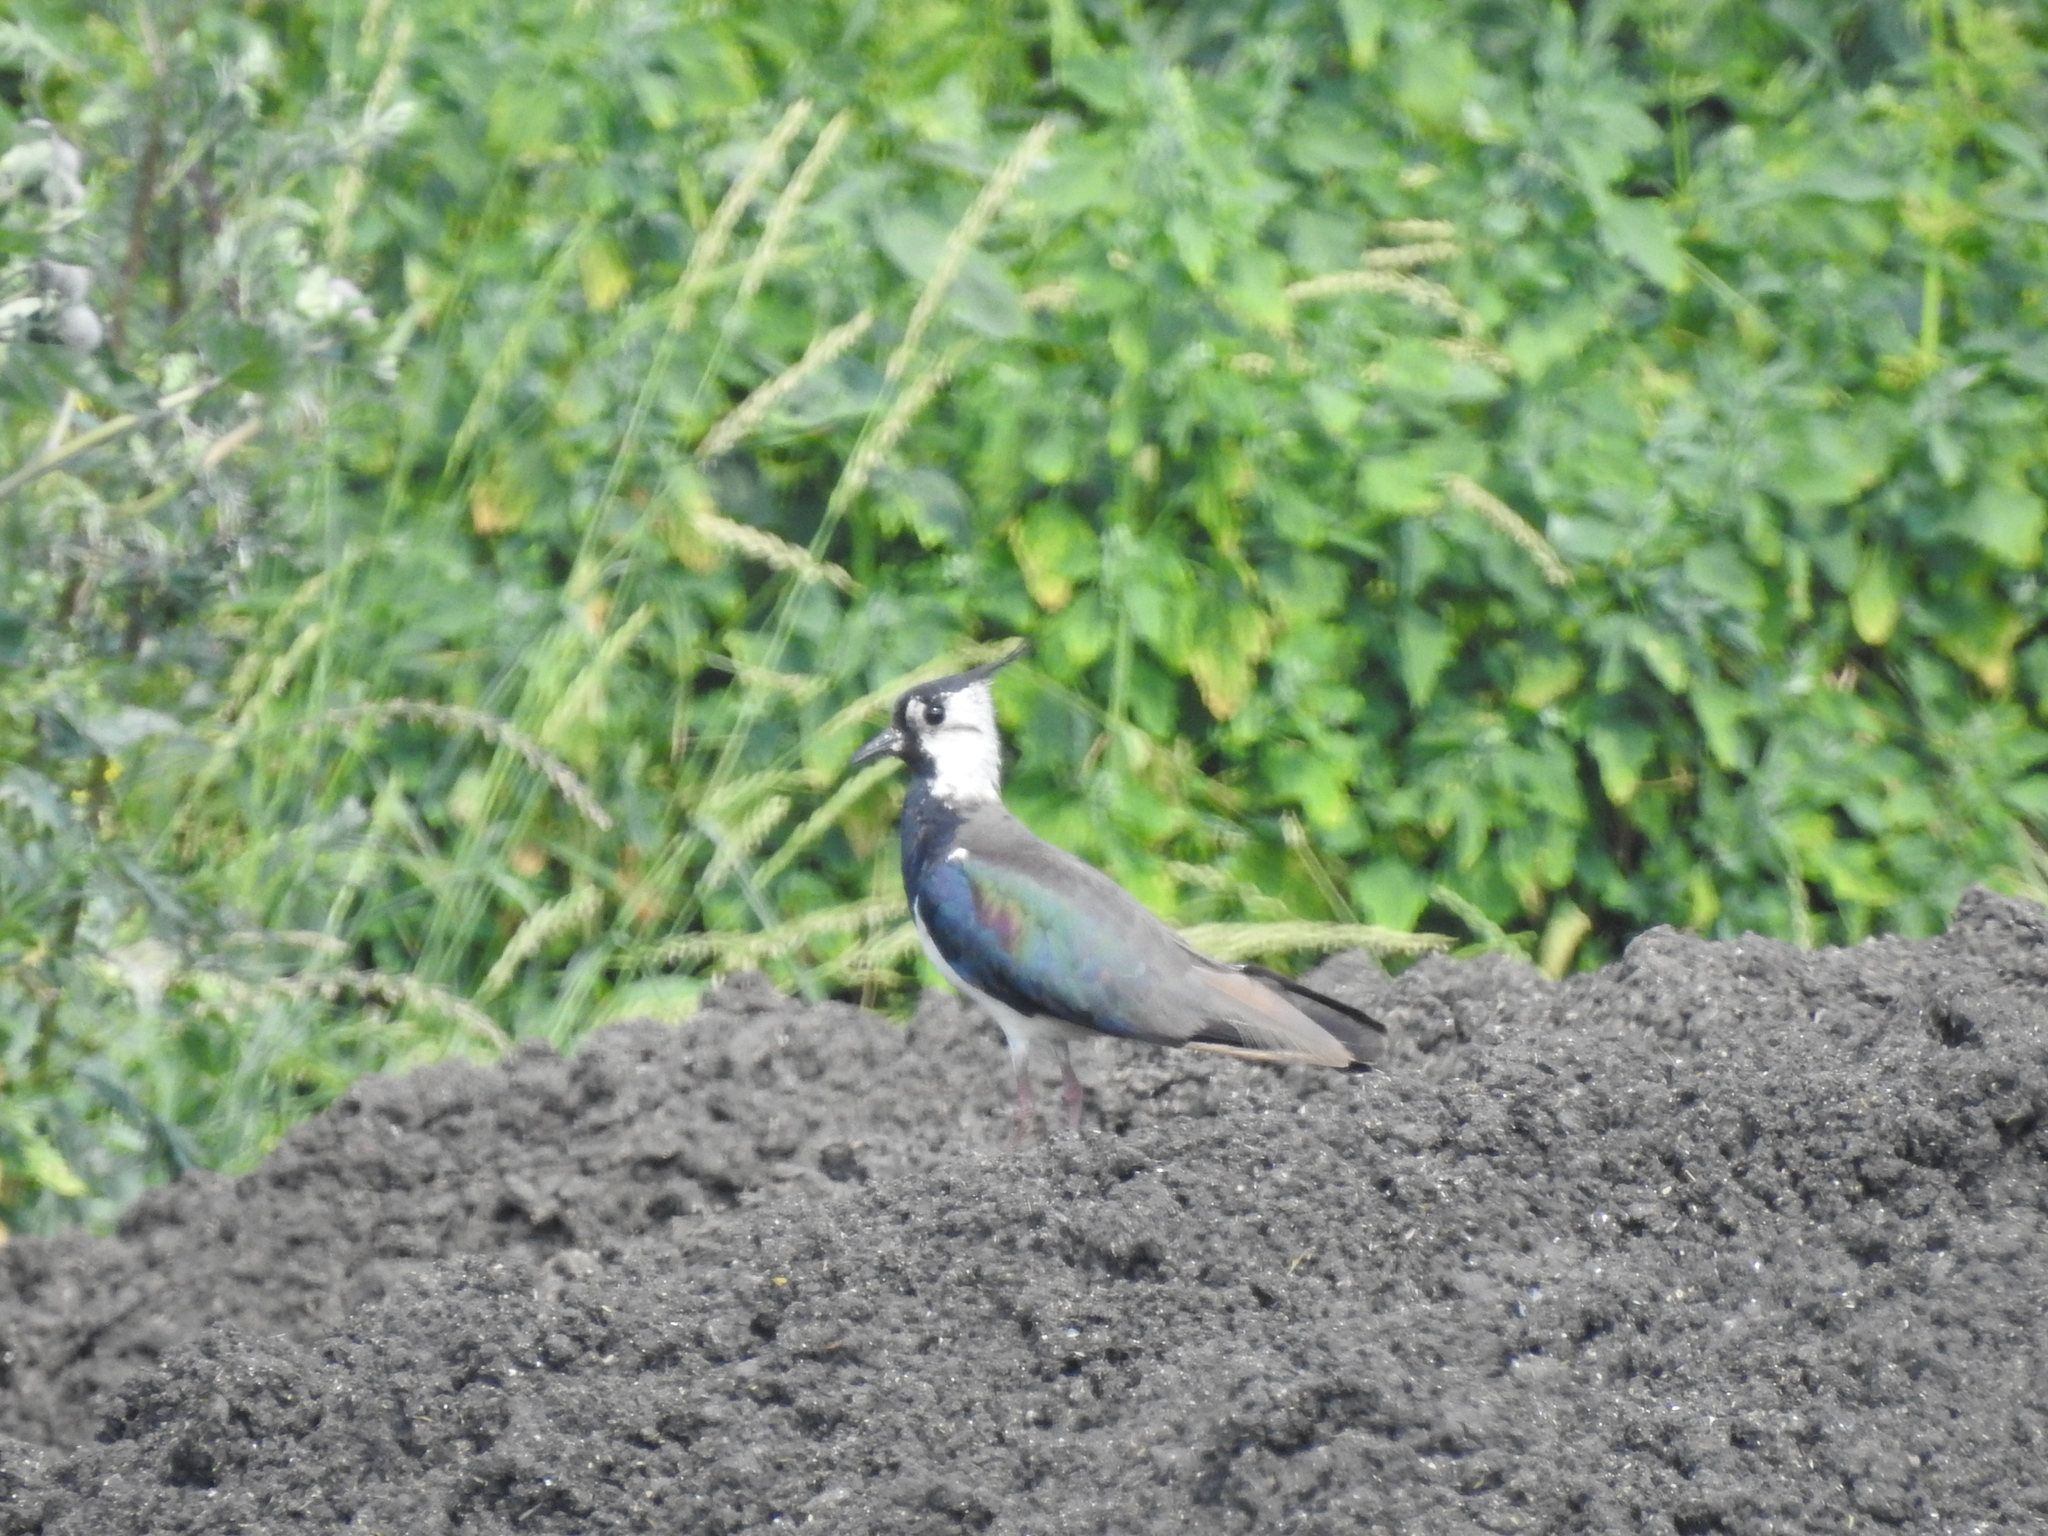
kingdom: Animalia
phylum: Chordata
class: Aves
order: Charadriiformes
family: Charadriidae
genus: Vanellus
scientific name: Vanellus vanellus
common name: Northern lapwing
